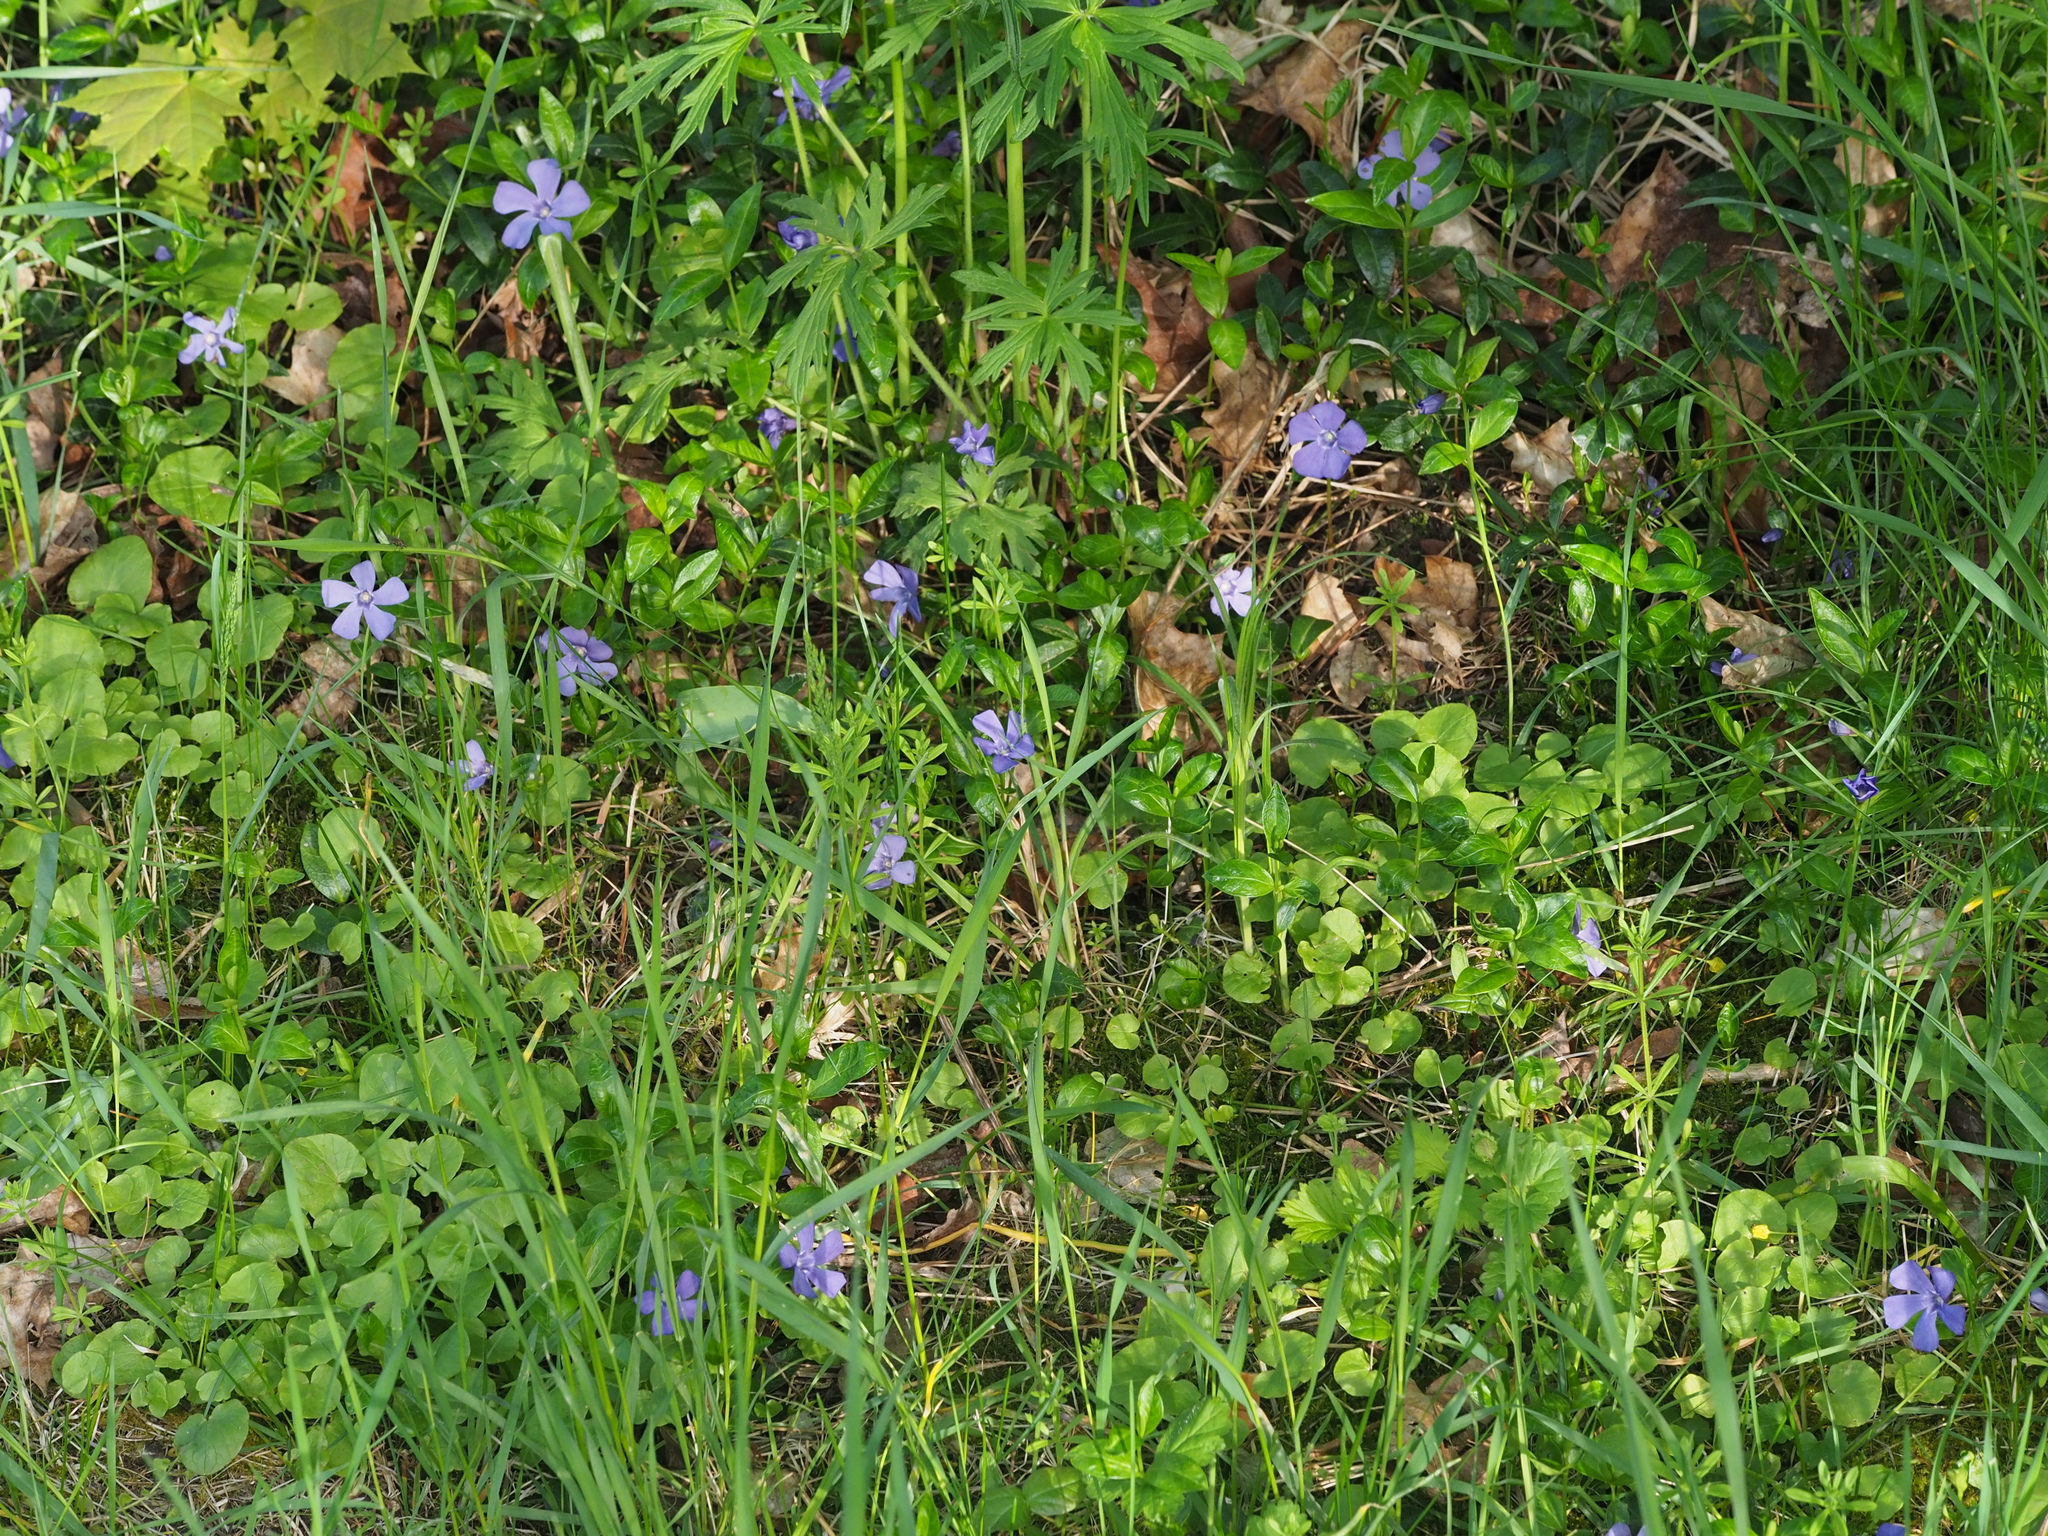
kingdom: Plantae
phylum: Tracheophyta
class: Magnoliopsida
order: Gentianales
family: Apocynaceae
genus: Vinca
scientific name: Vinca minor
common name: Lesser periwinkle
